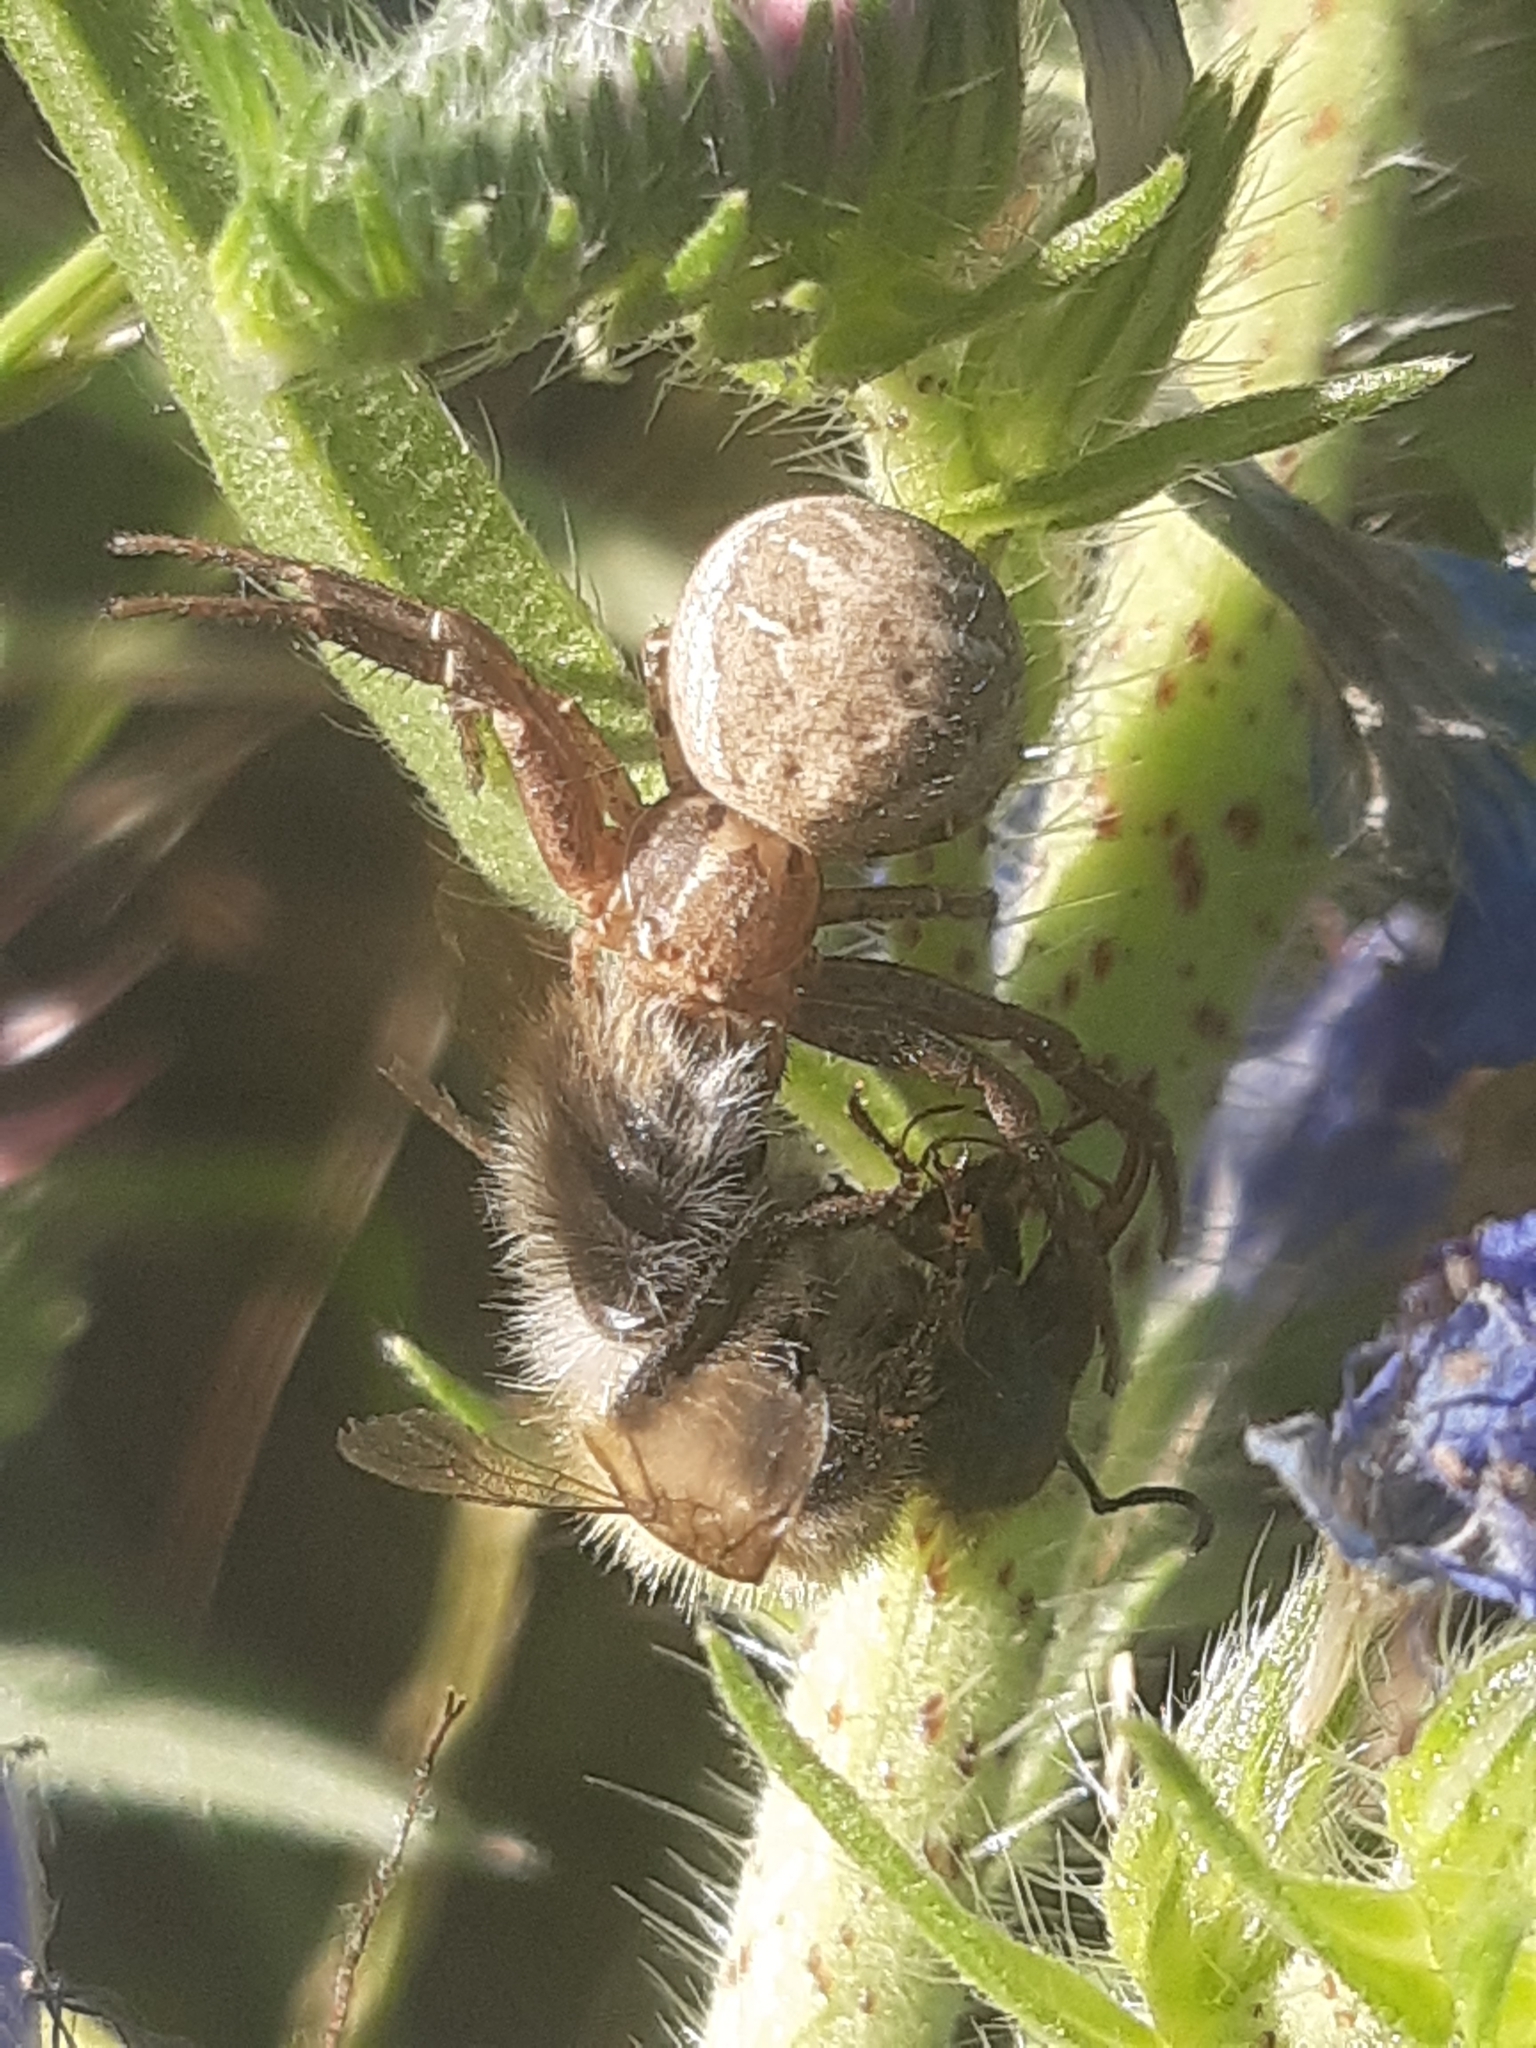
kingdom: Animalia
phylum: Arthropoda
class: Arachnida
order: Araneae
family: Thomisidae
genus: Xysticus
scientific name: Xysticus
